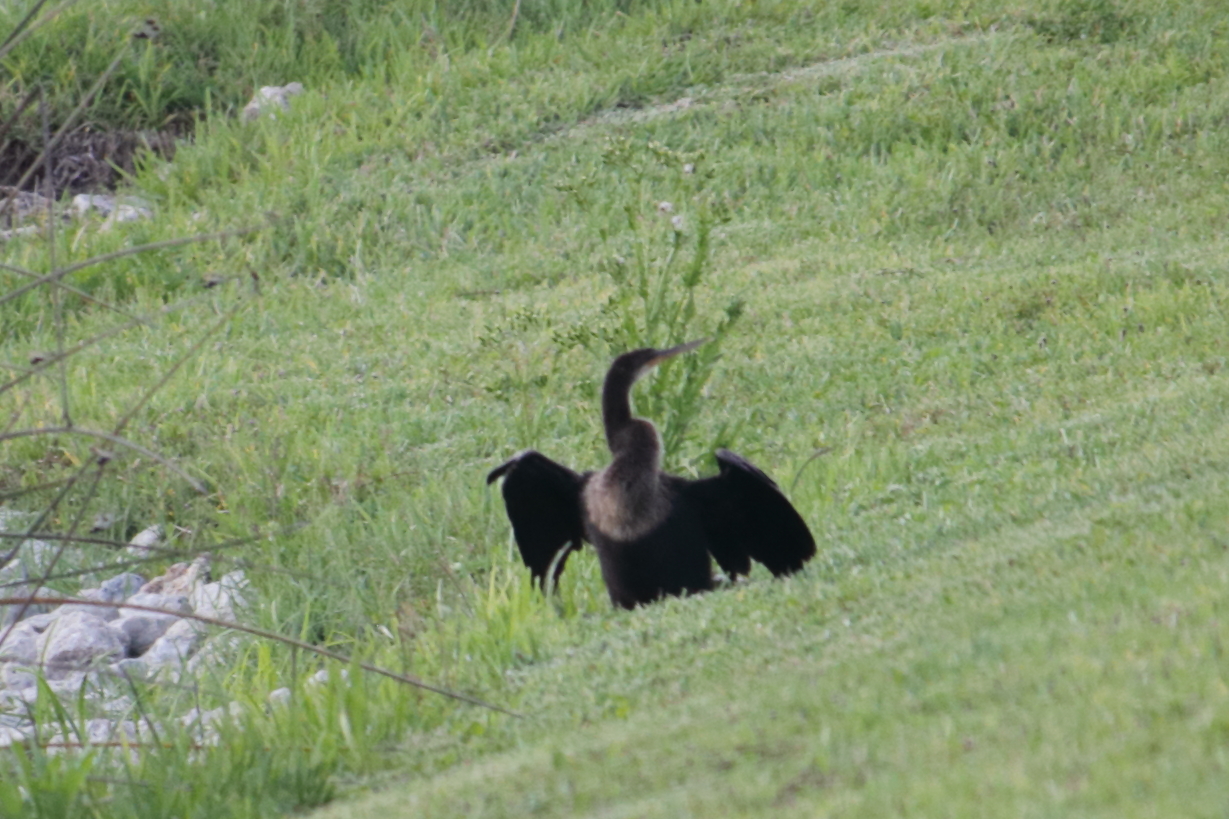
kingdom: Animalia
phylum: Chordata
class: Aves
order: Suliformes
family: Anhingidae
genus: Anhinga
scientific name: Anhinga anhinga
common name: Anhinga
